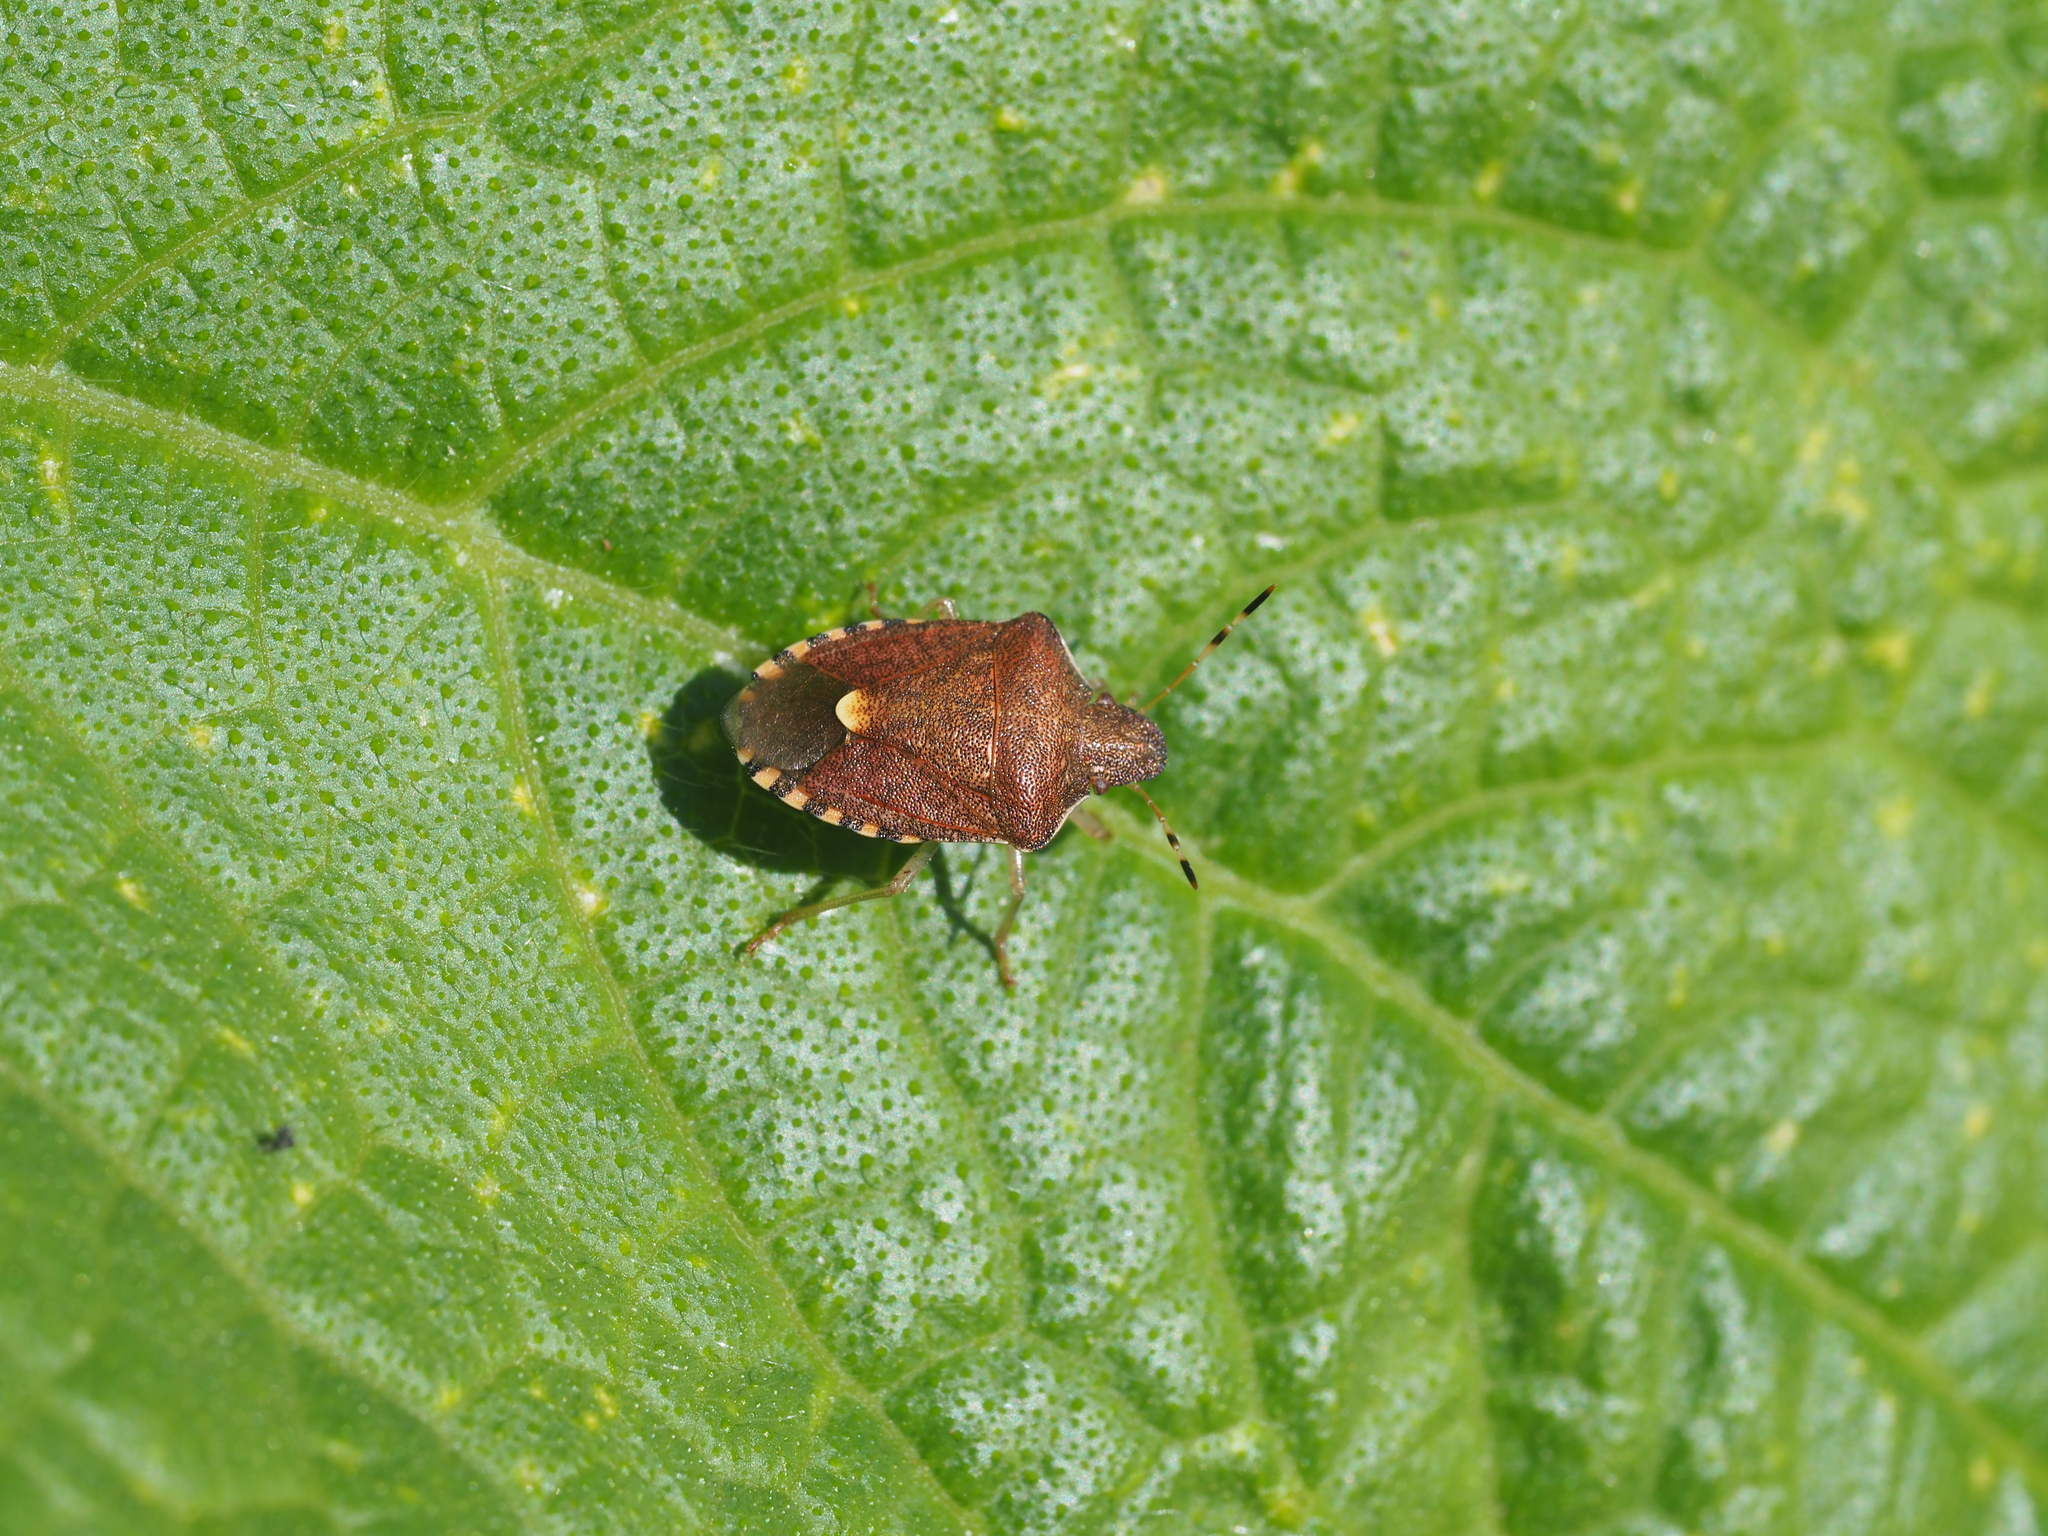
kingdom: Animalia
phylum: Arthropoda
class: Insecta
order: Hemiptera
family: Pentatomidae
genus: Holcostethus
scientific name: Holcostethus strictus
